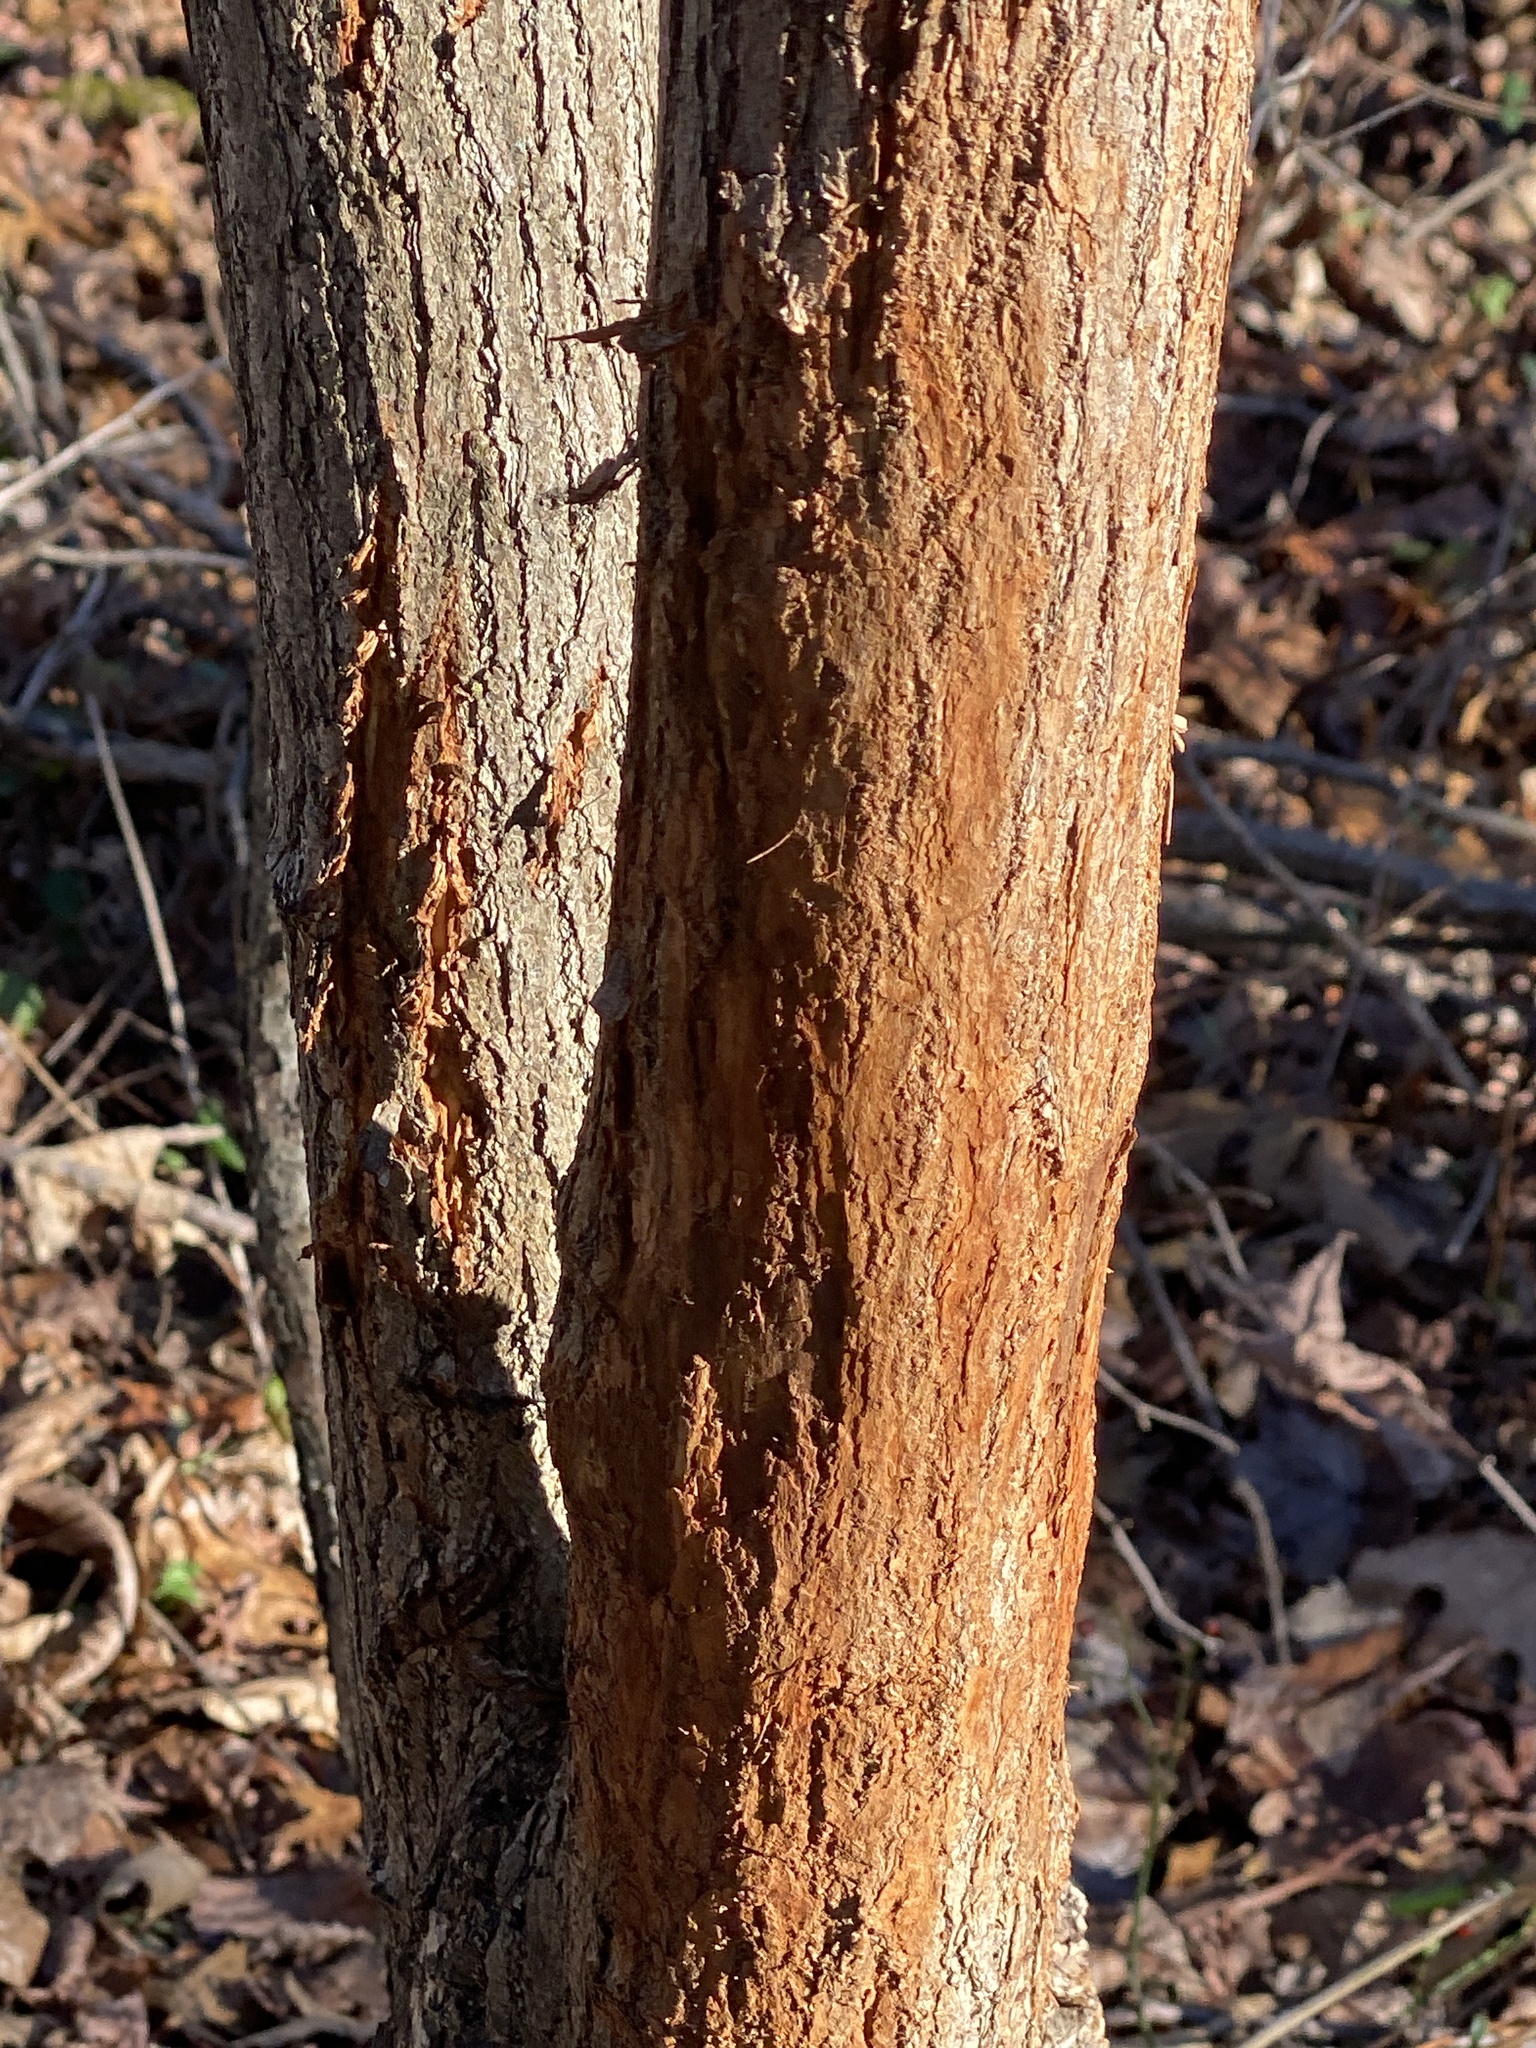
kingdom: Animalia
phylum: Chordata
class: Mammalia
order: Artiodactyla
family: Cervidae
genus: Odocoileus
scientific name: Odocoileus virginianus
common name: White-tailed deer
